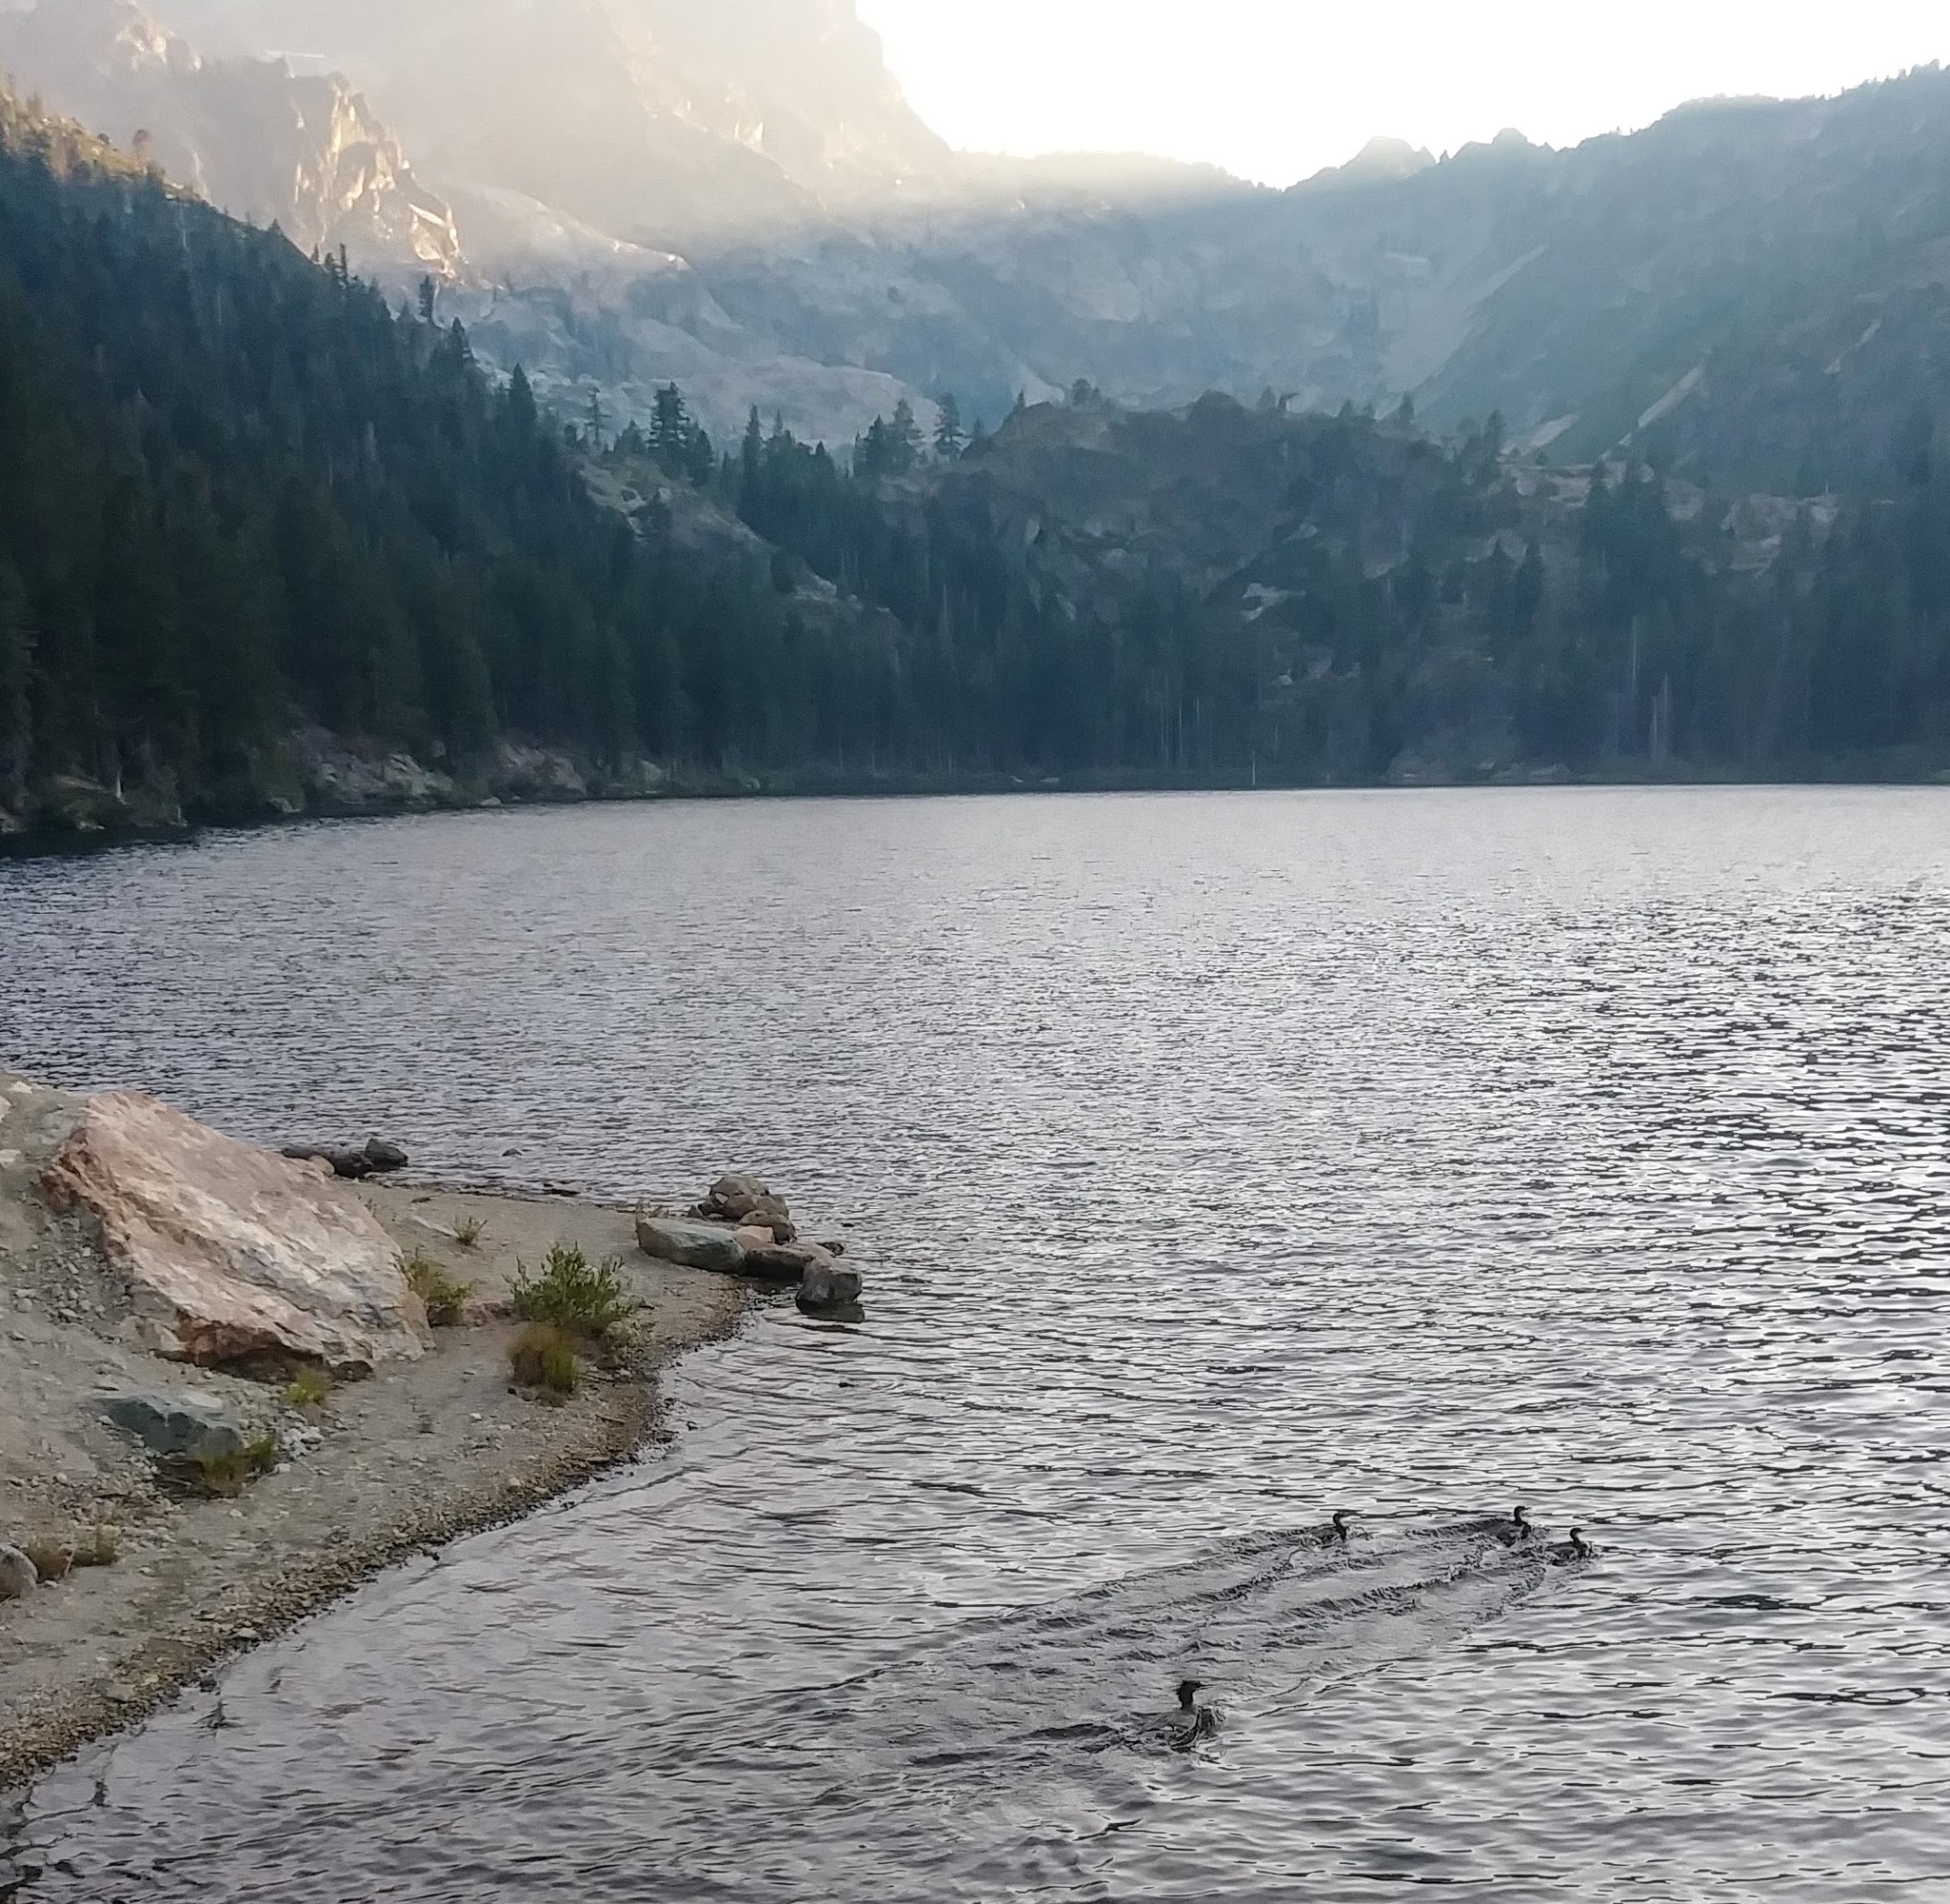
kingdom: Animalia
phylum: Chordata
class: Aves
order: Anseriformes
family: Anatidae
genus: Mergus
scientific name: Mergus merganser
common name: Common merganser
